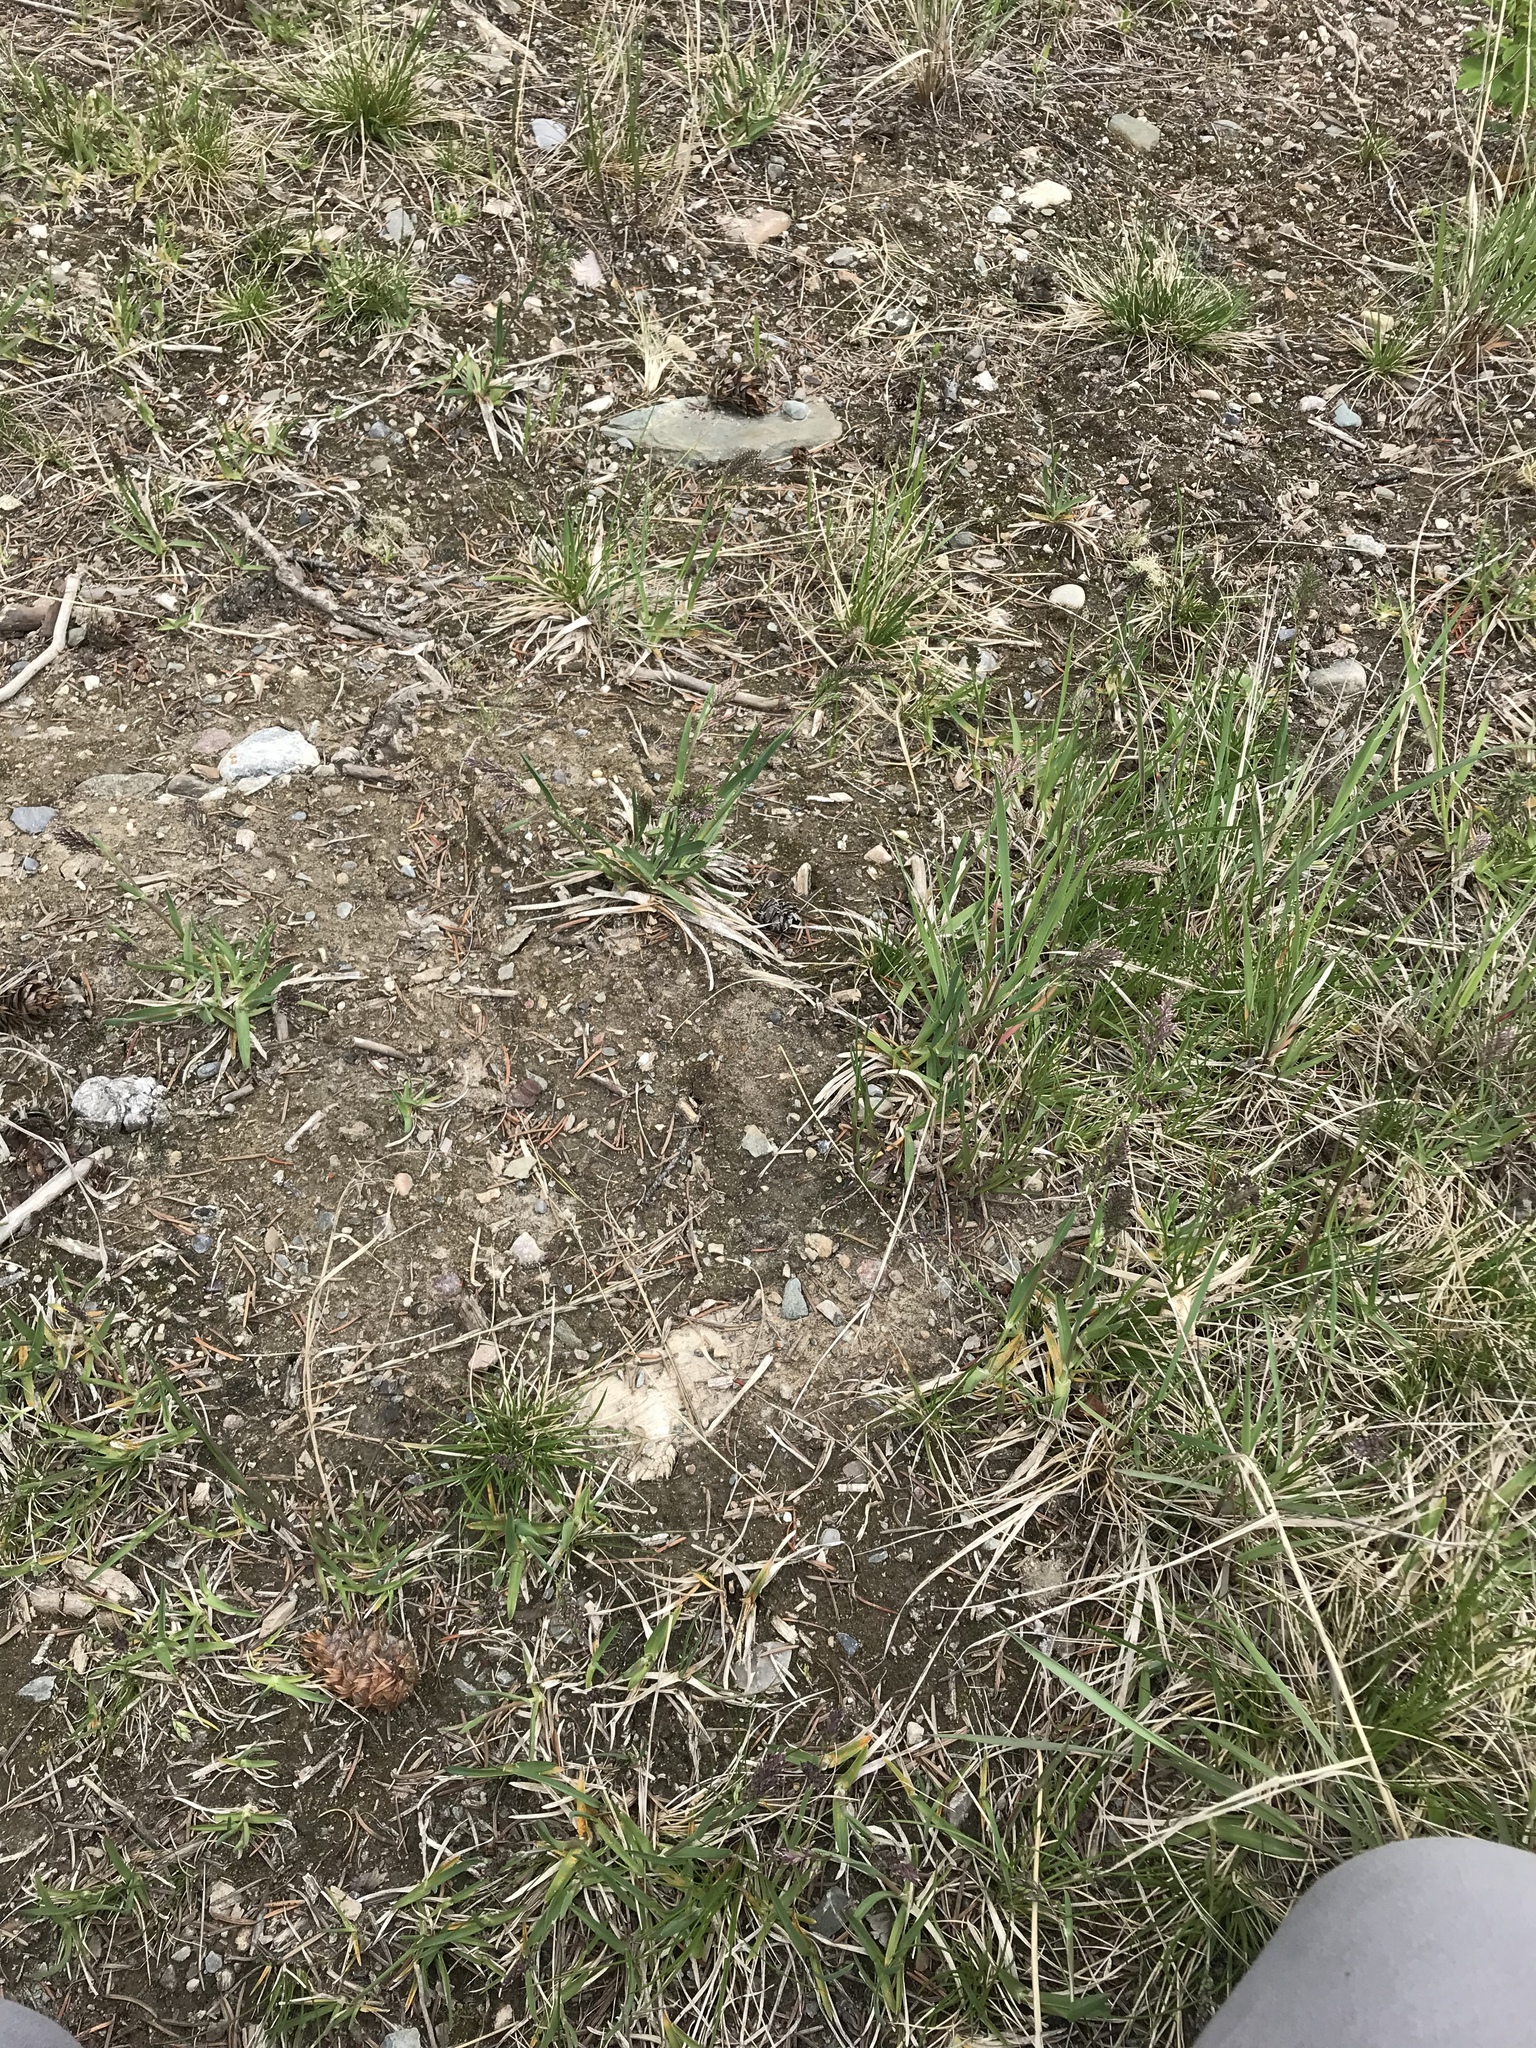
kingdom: Plantae
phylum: Tracheophyta
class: Liliopsida
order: Poales
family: Poaceae
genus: Poa
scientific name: Poa alpina
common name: Alpine bluegrass
